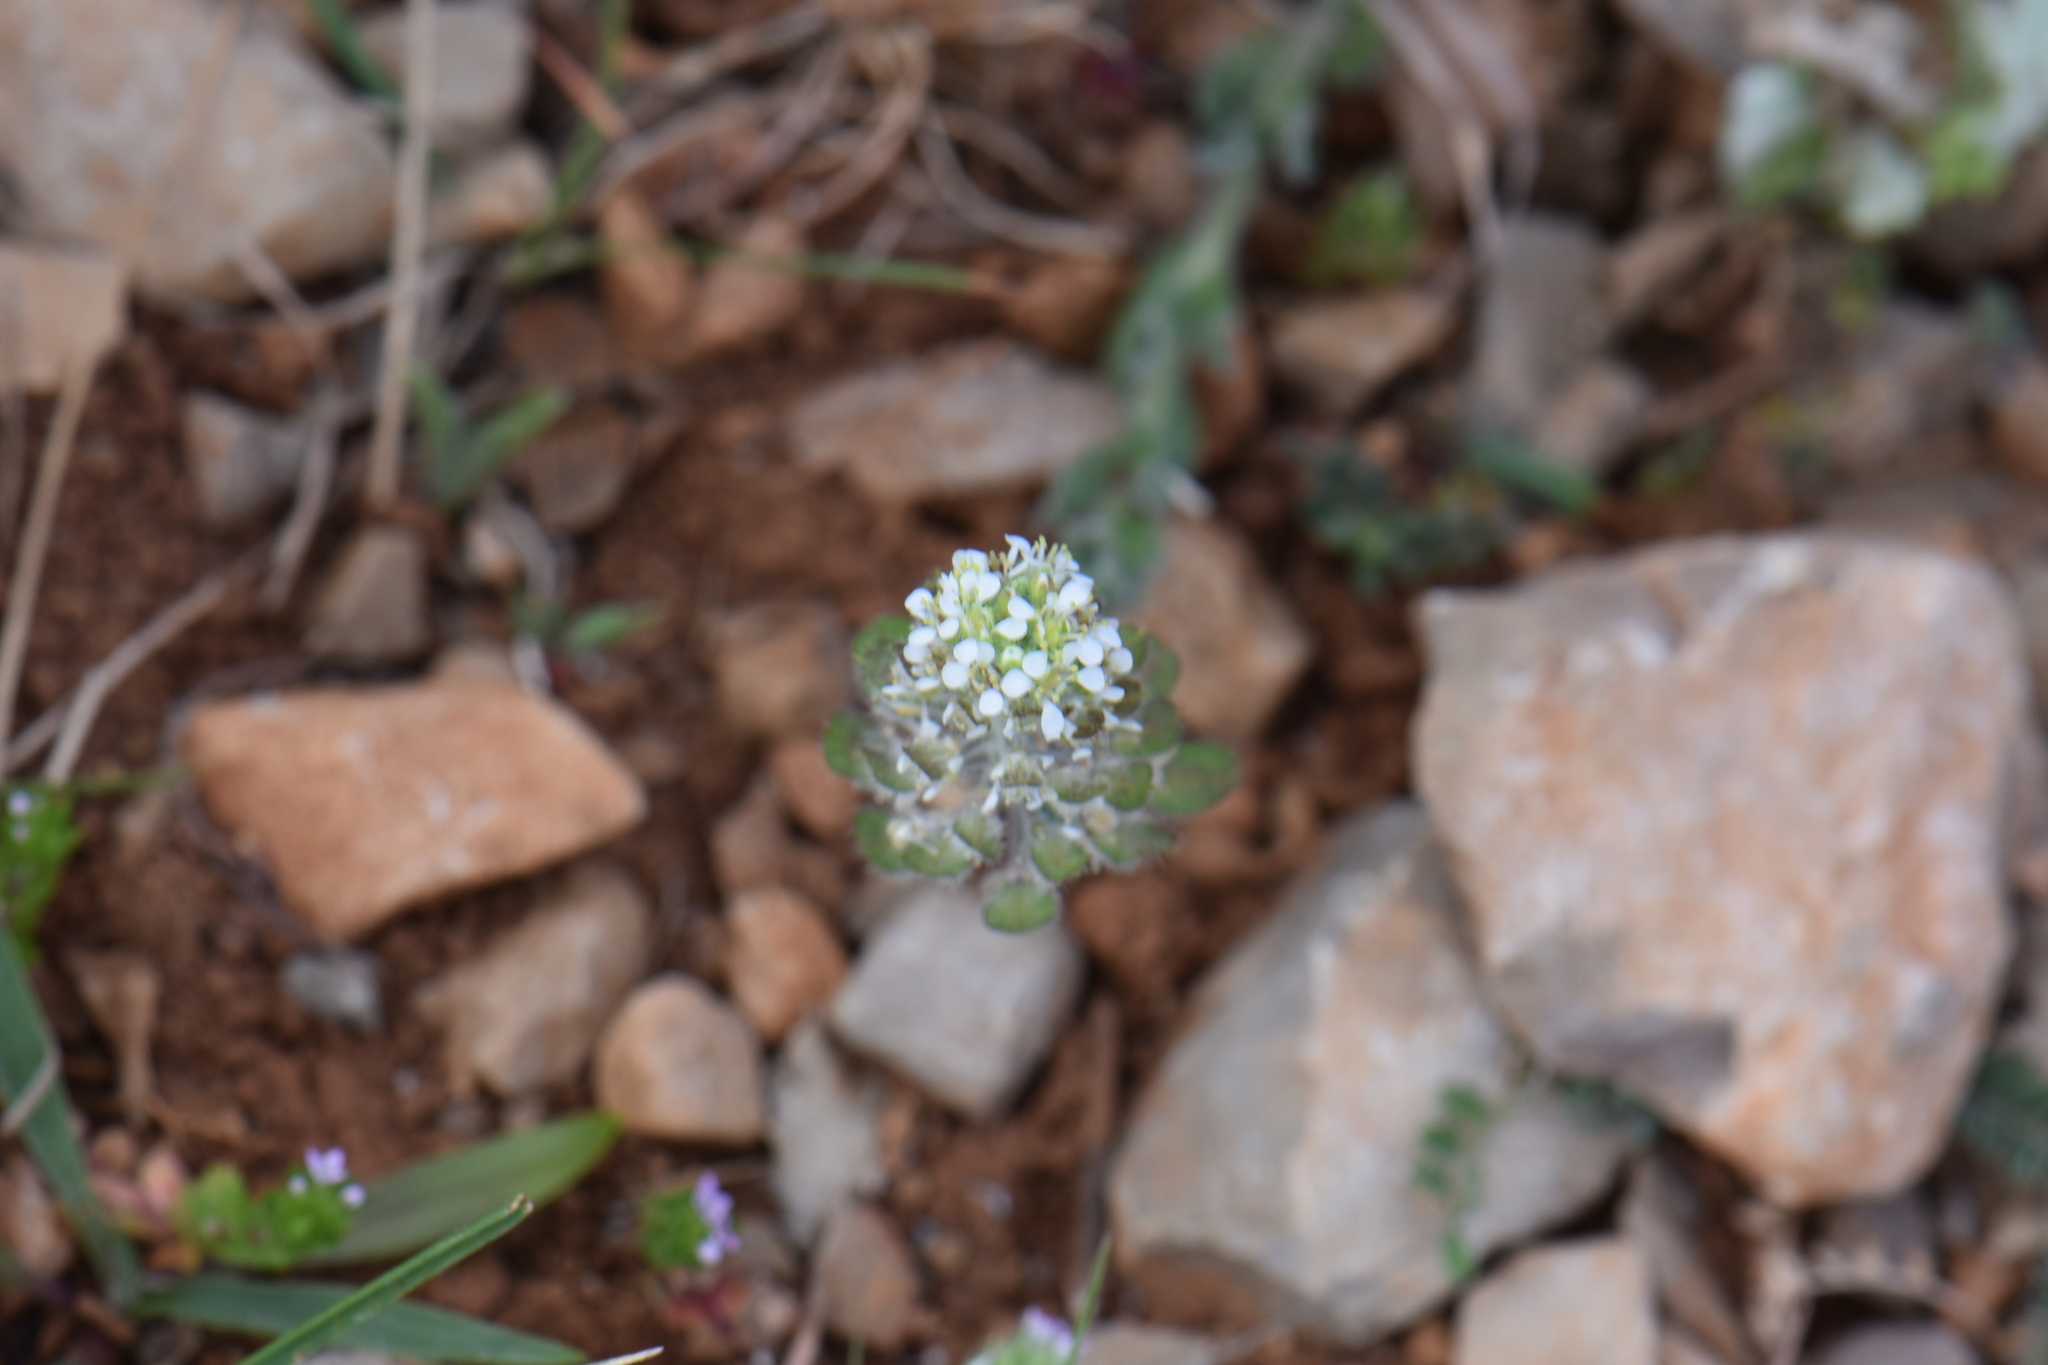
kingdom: Plantae
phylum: Tracheophyta
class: Magnoliopsida
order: Brassicales
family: Brassicaceae
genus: Lepidium
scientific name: Lepidium hirtum
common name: Mediterranean pepperweed
